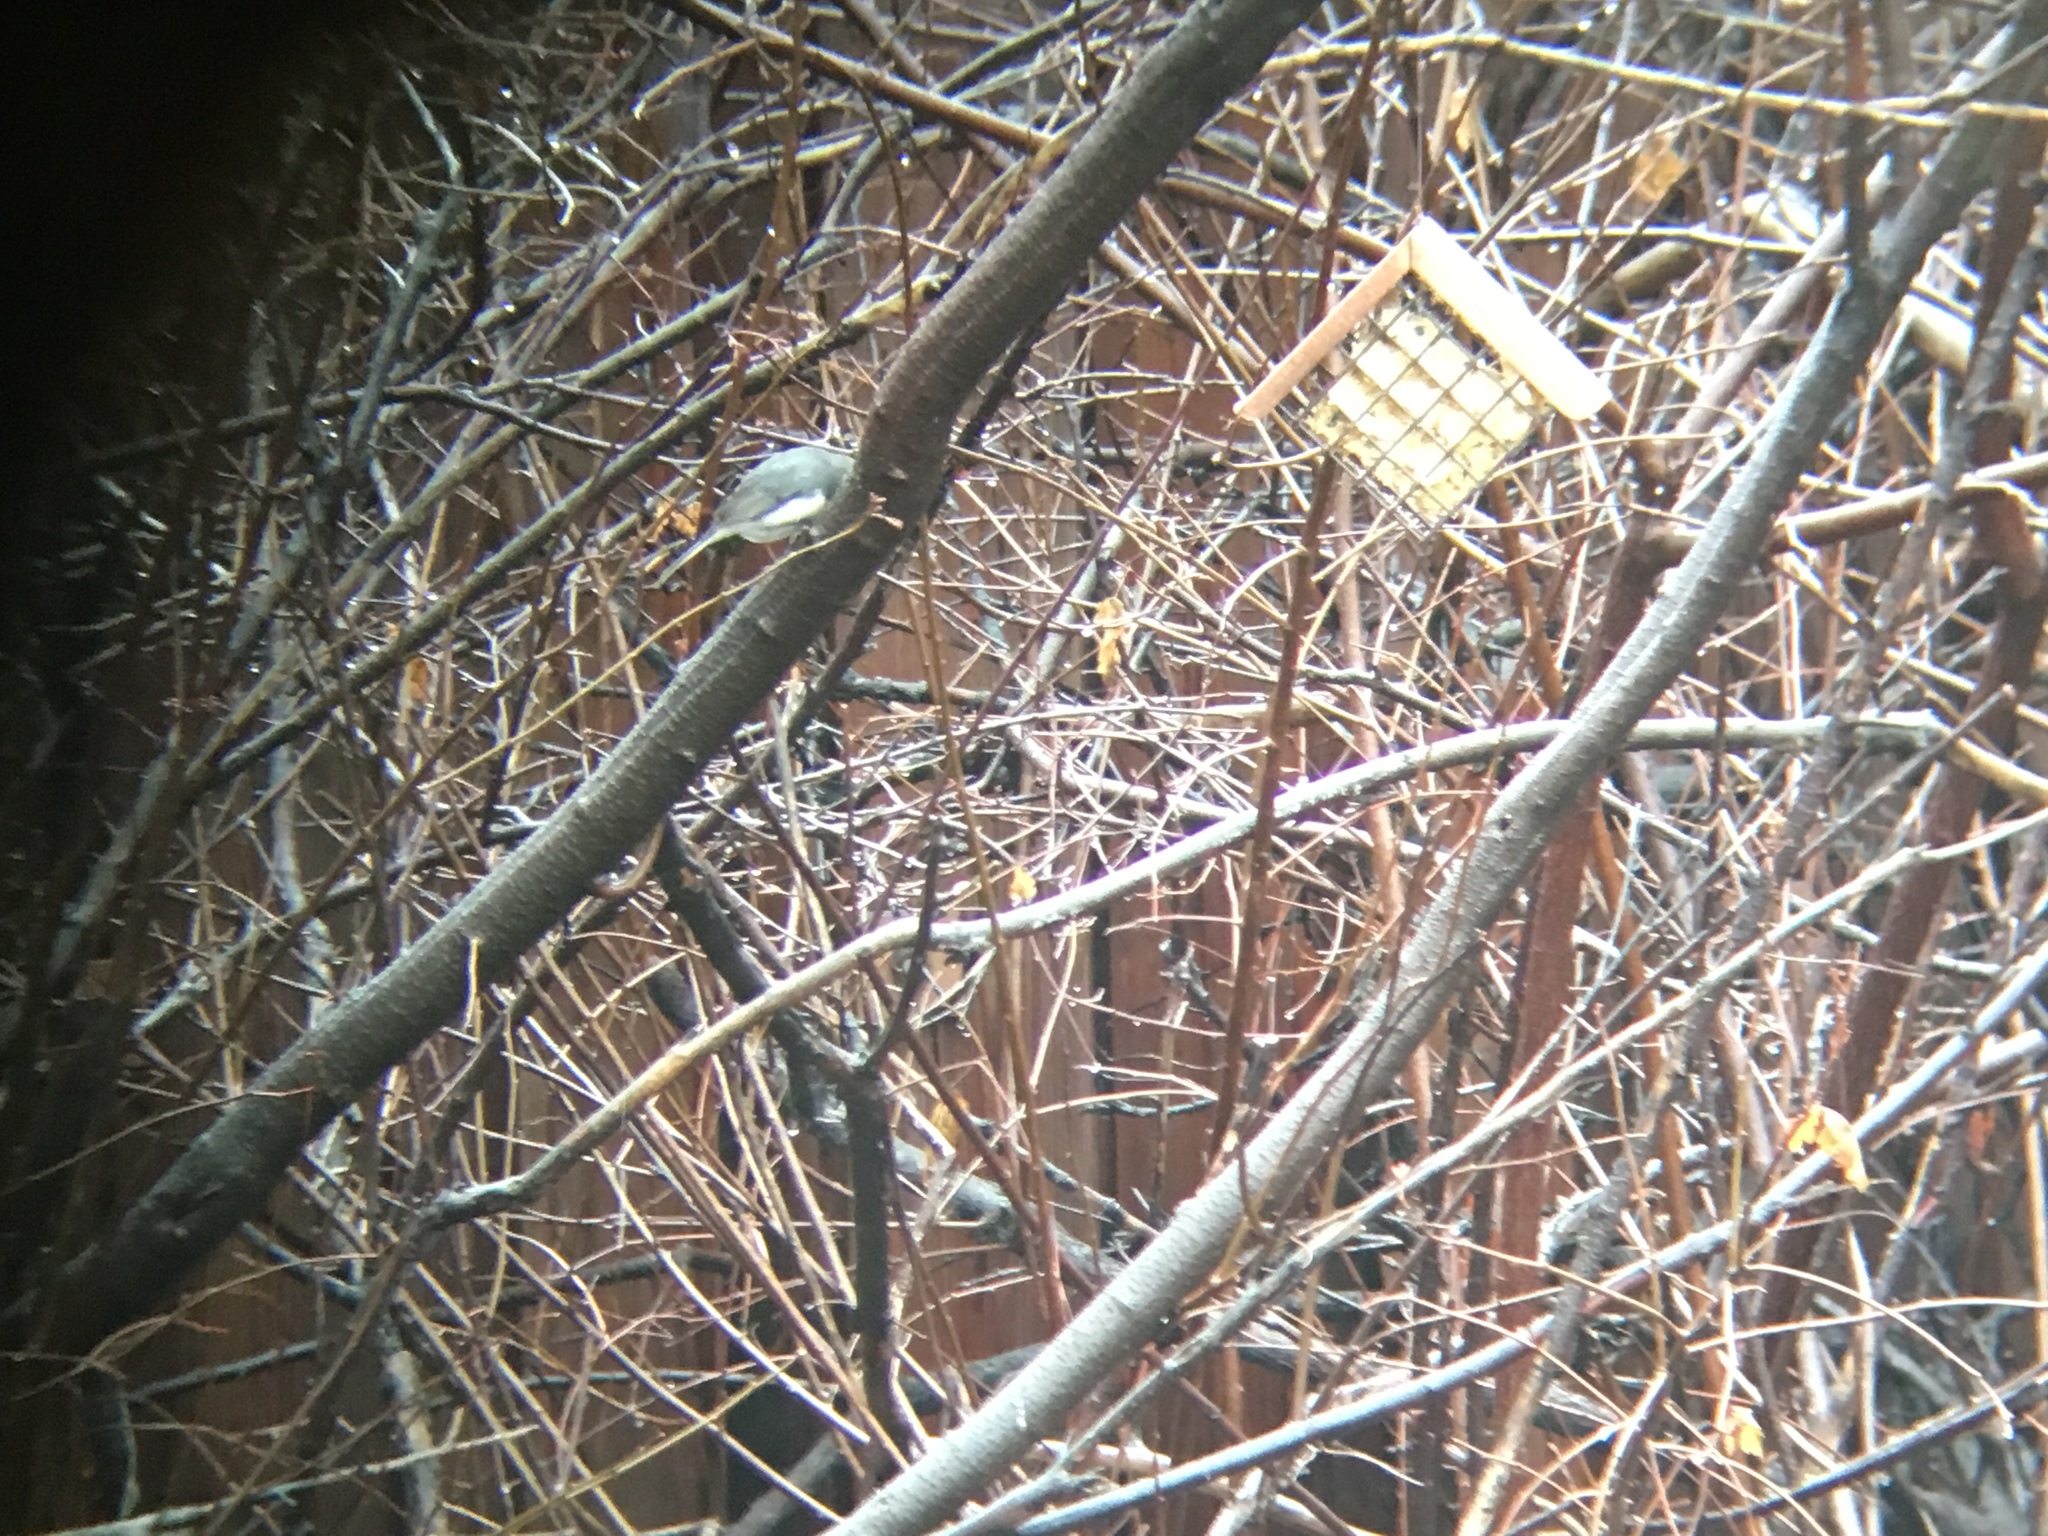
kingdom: Animalia
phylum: Chordata
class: Aves
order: Passeriformes
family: Passerellidae
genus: Junco
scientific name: Junco hyemalis
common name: Dark-eyed junco
